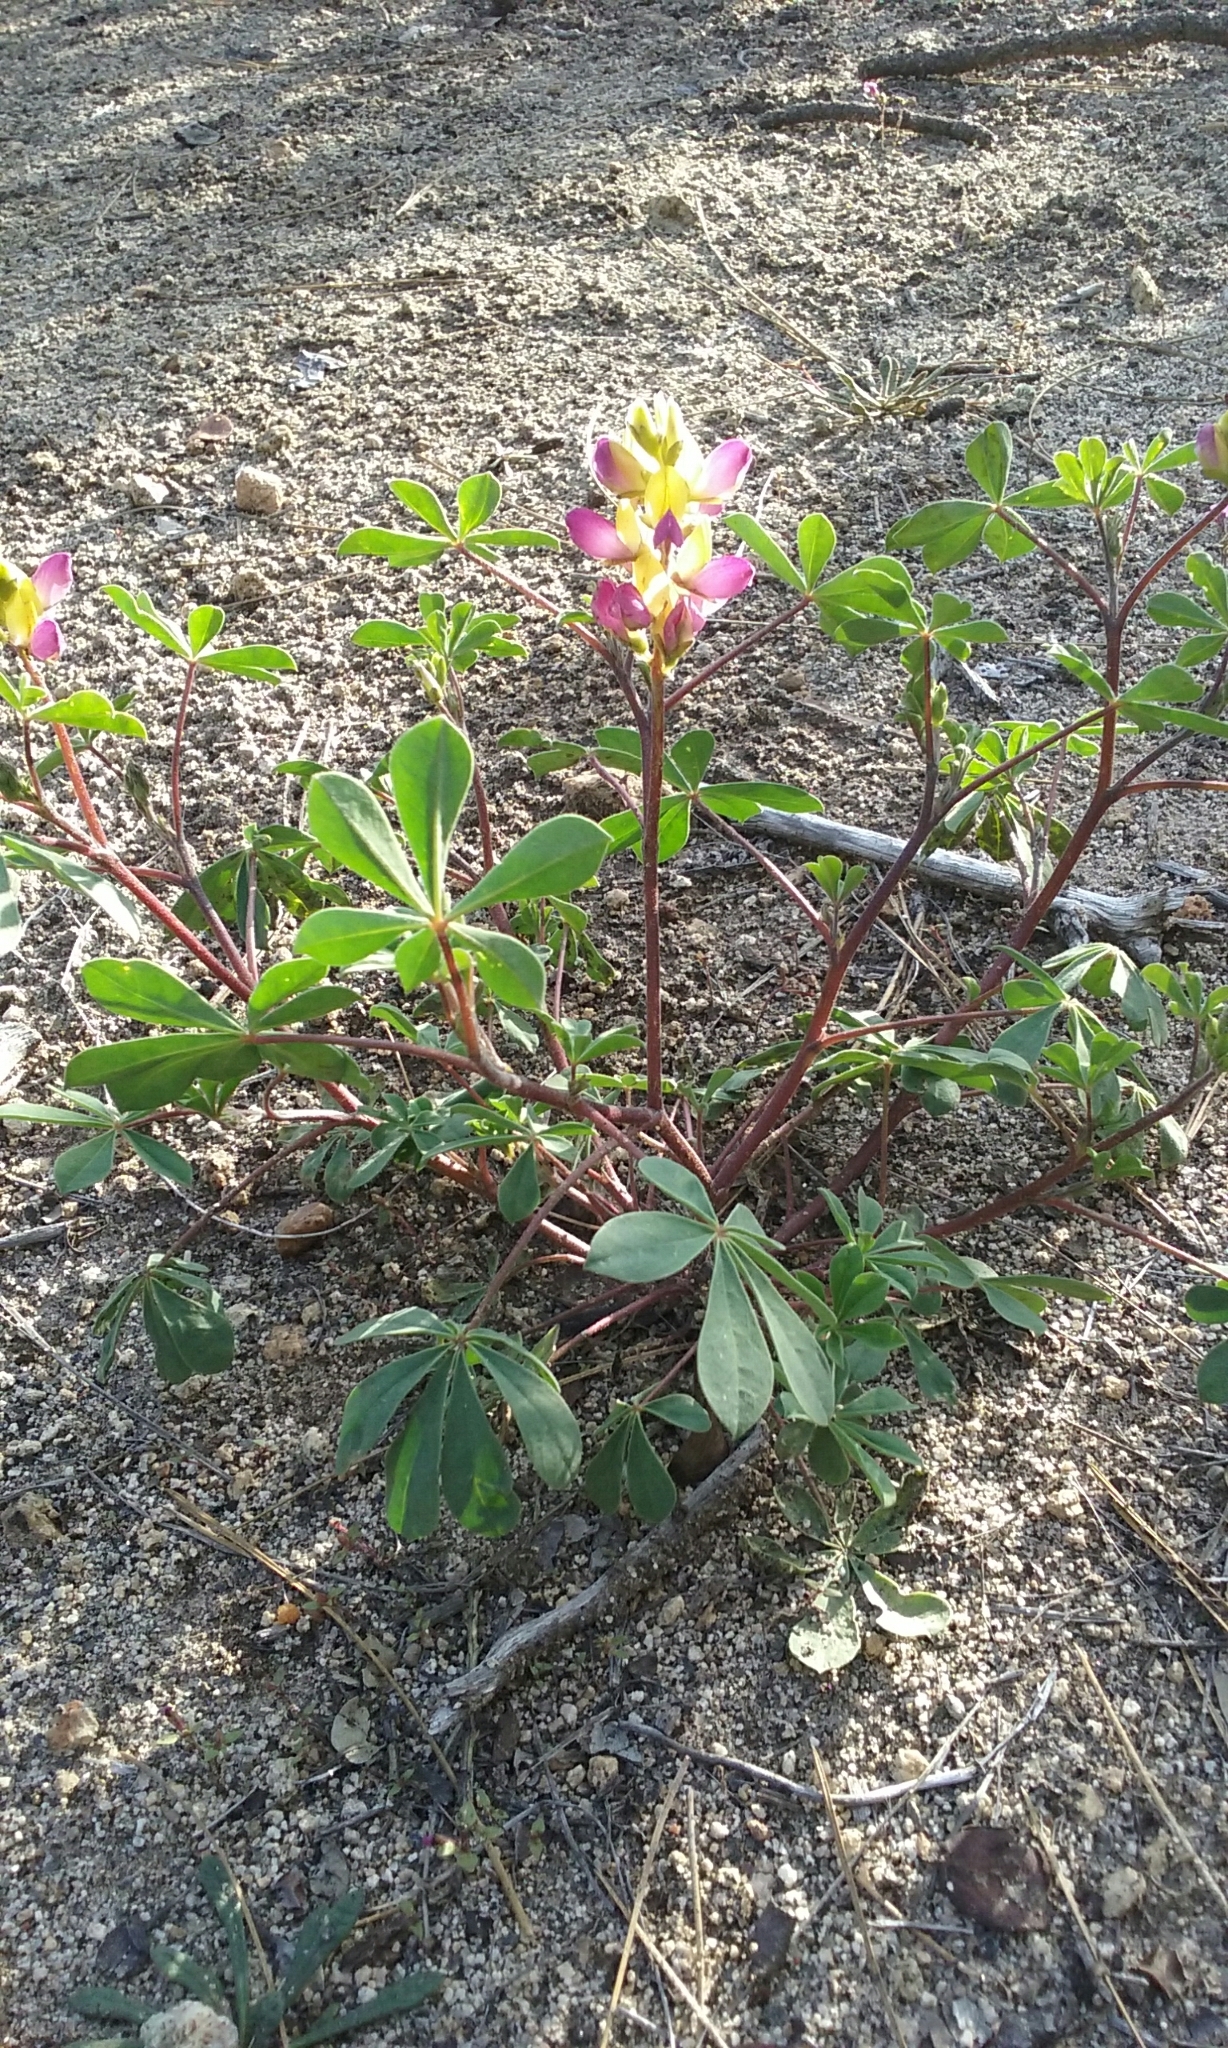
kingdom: Plantae
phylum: Tracheophyta
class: Magnoliopsida
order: Fabales
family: Fabaceae
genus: Lupinus
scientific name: Lupinus stiversii
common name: Harlequin lupine
